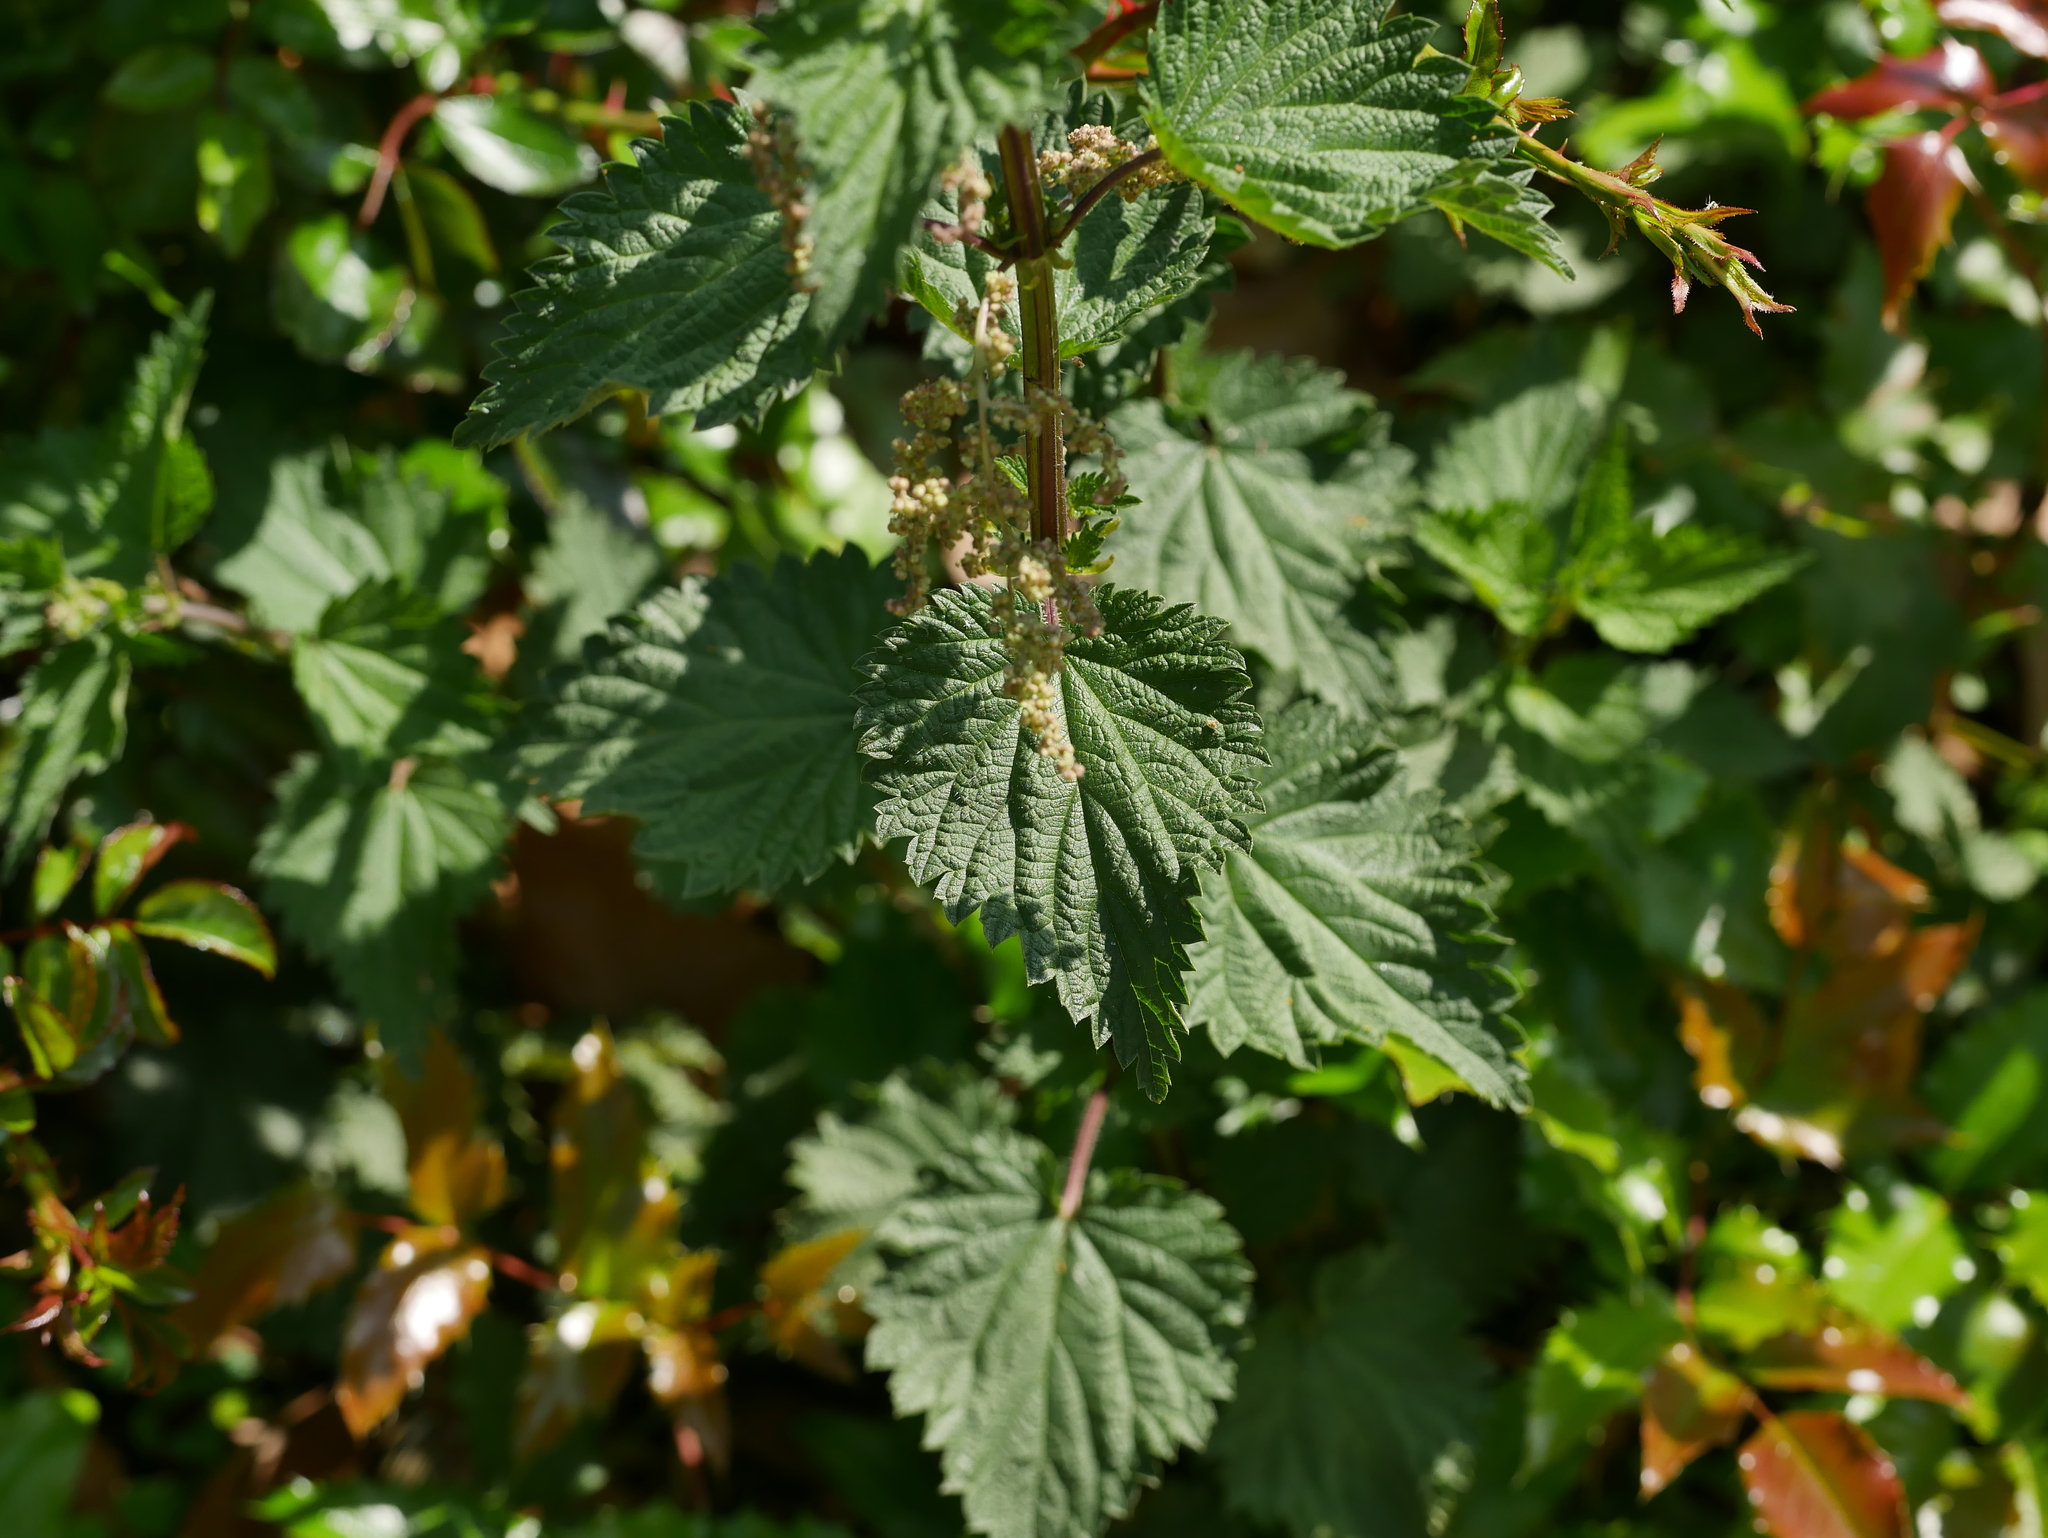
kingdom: Plantae
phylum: Tracheophyta
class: Magnoliopsida
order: Rosales
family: Urticaceae
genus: Urtica
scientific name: Urtica dioica
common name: Common nettle
